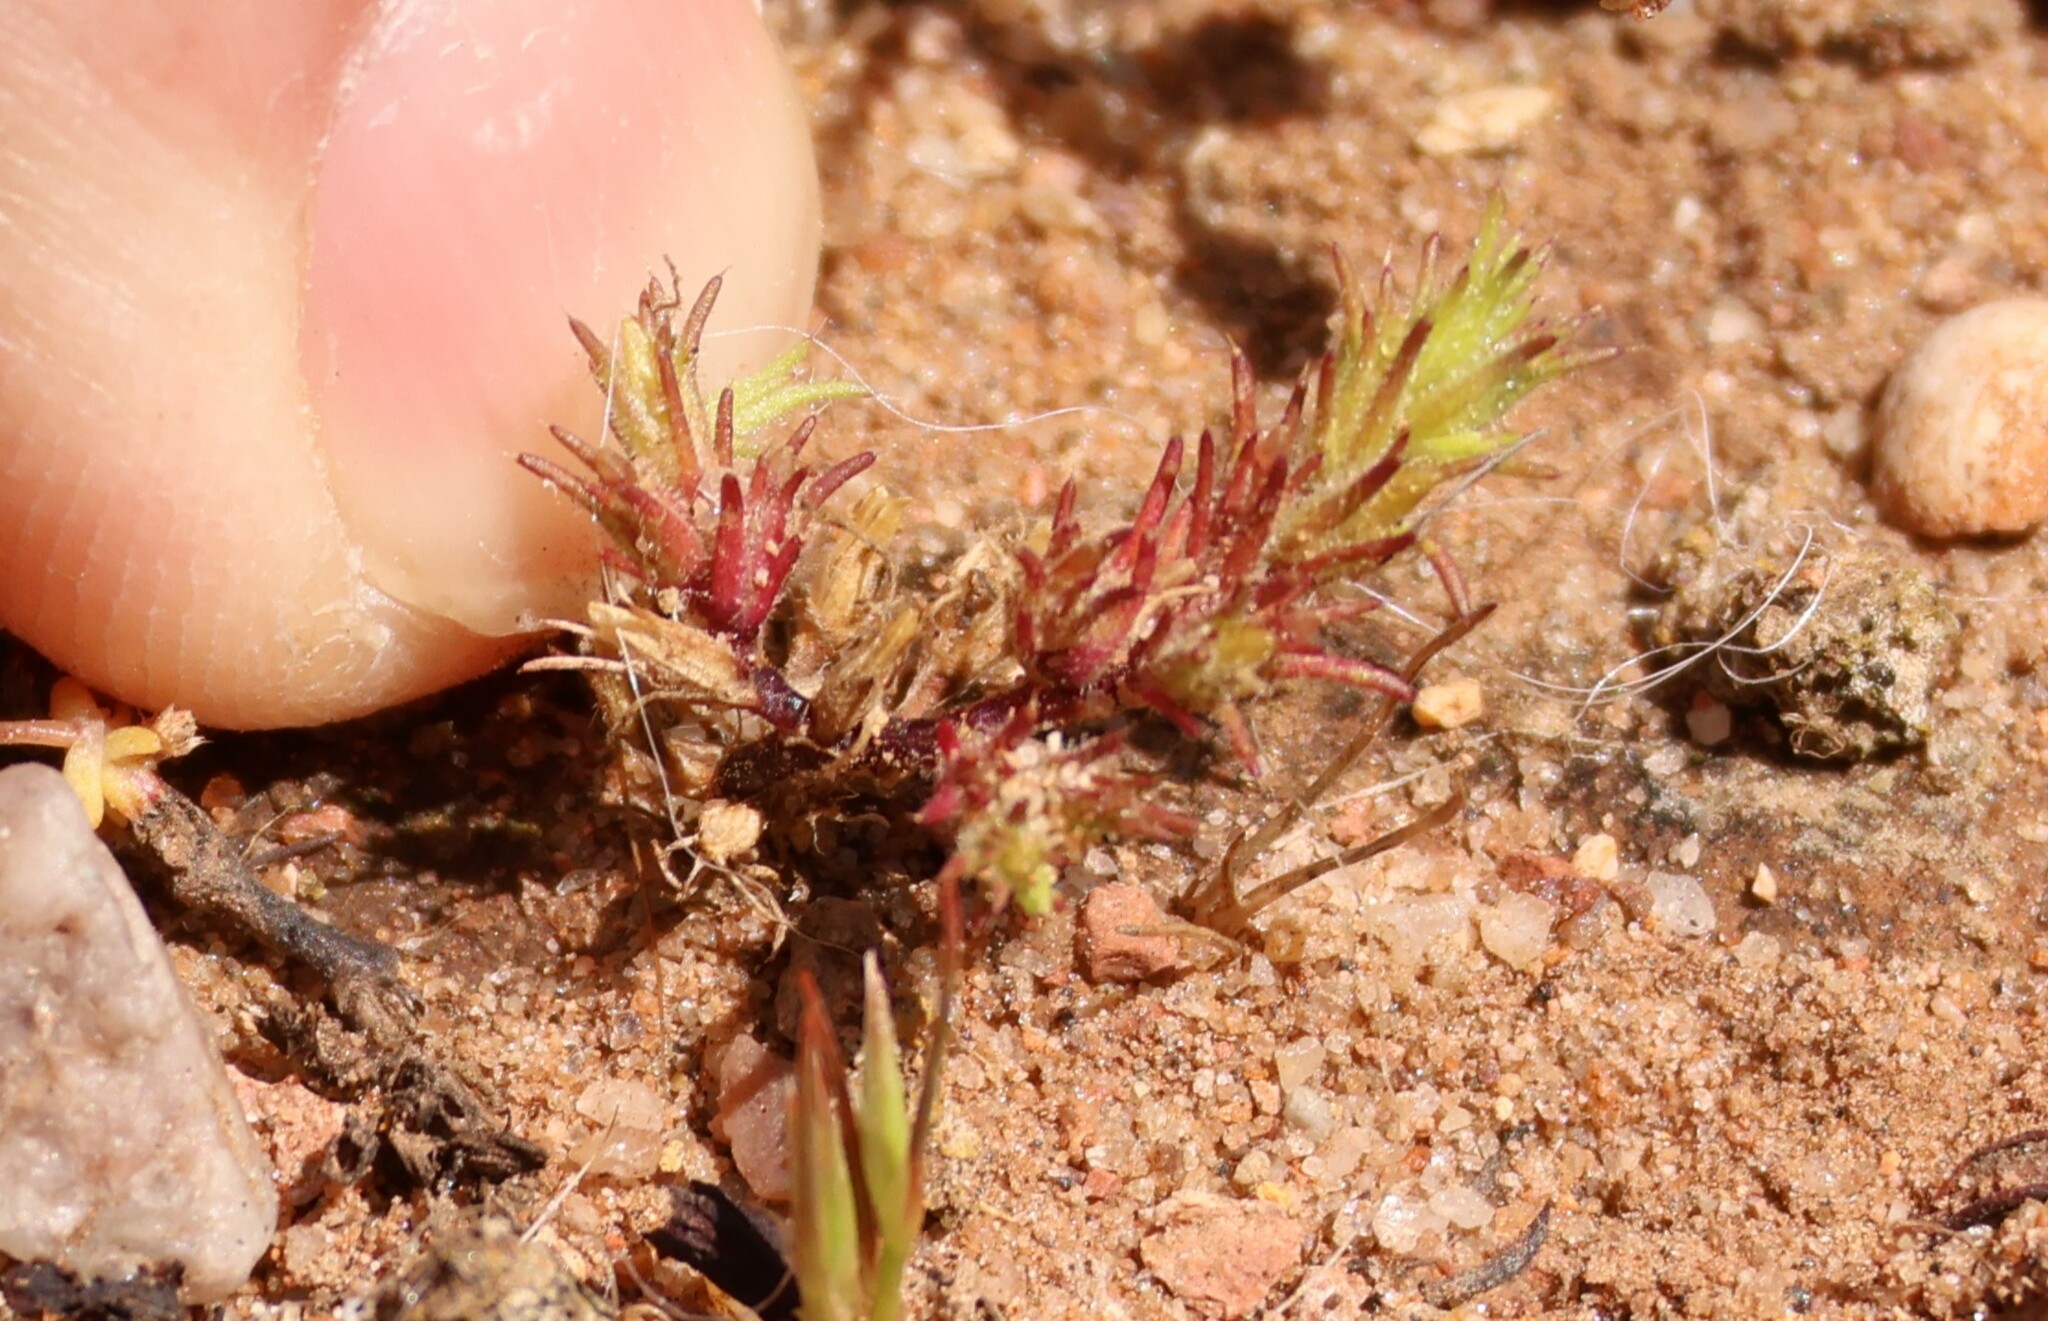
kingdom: Plantae
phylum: Tracheophyta
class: Magnoliopsida
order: Caryophyllales
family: Caryophyllaceae
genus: Loeflingia
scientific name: Loeflingia squarrosa
